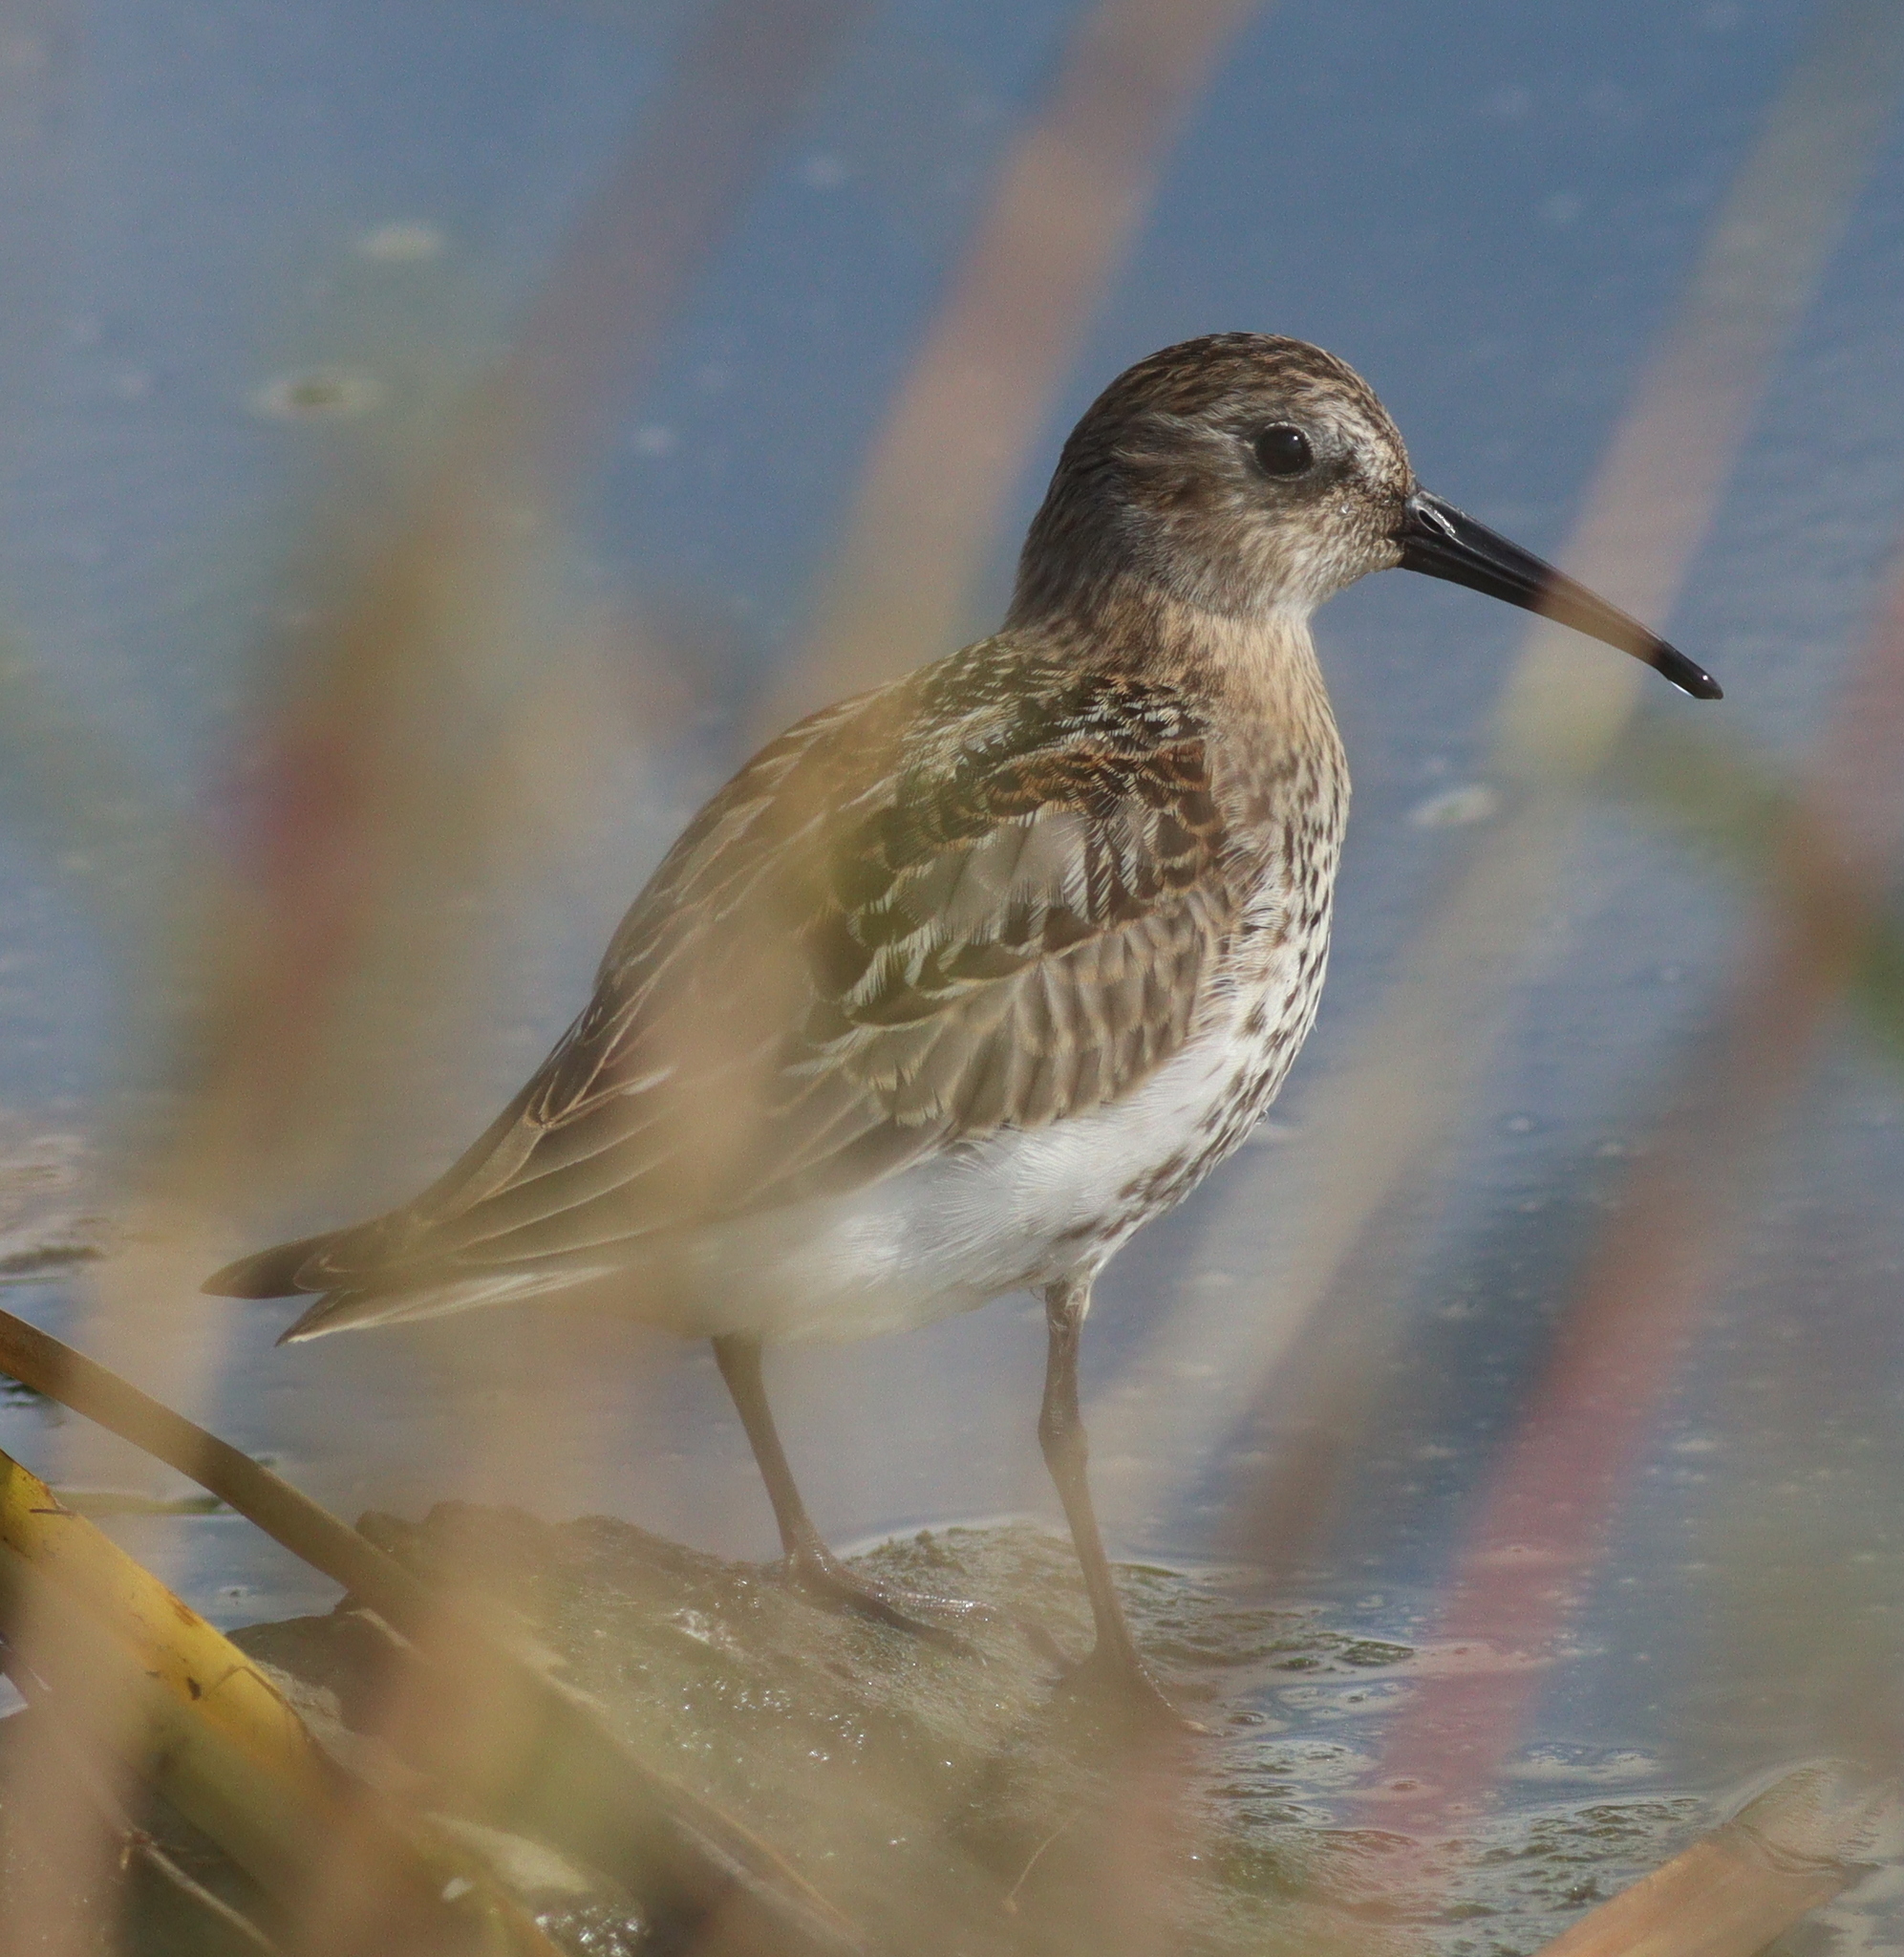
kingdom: Animalia
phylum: Chordata
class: Aves
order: Charadriiformes
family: Scolopacidae
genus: Calidris
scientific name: Calidris alpina
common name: Dunlin
